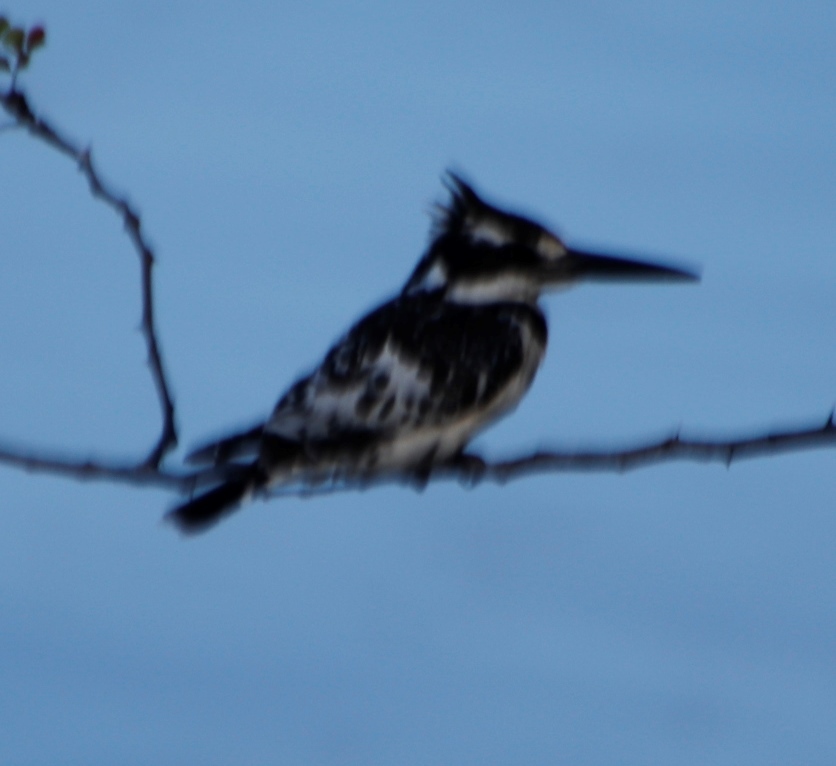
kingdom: Animalia
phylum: Chordata
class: Aves
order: Coraciiformes
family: Alcedinidae
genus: Ceryle
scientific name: Ceryle rudis
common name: Pied kingfisher
